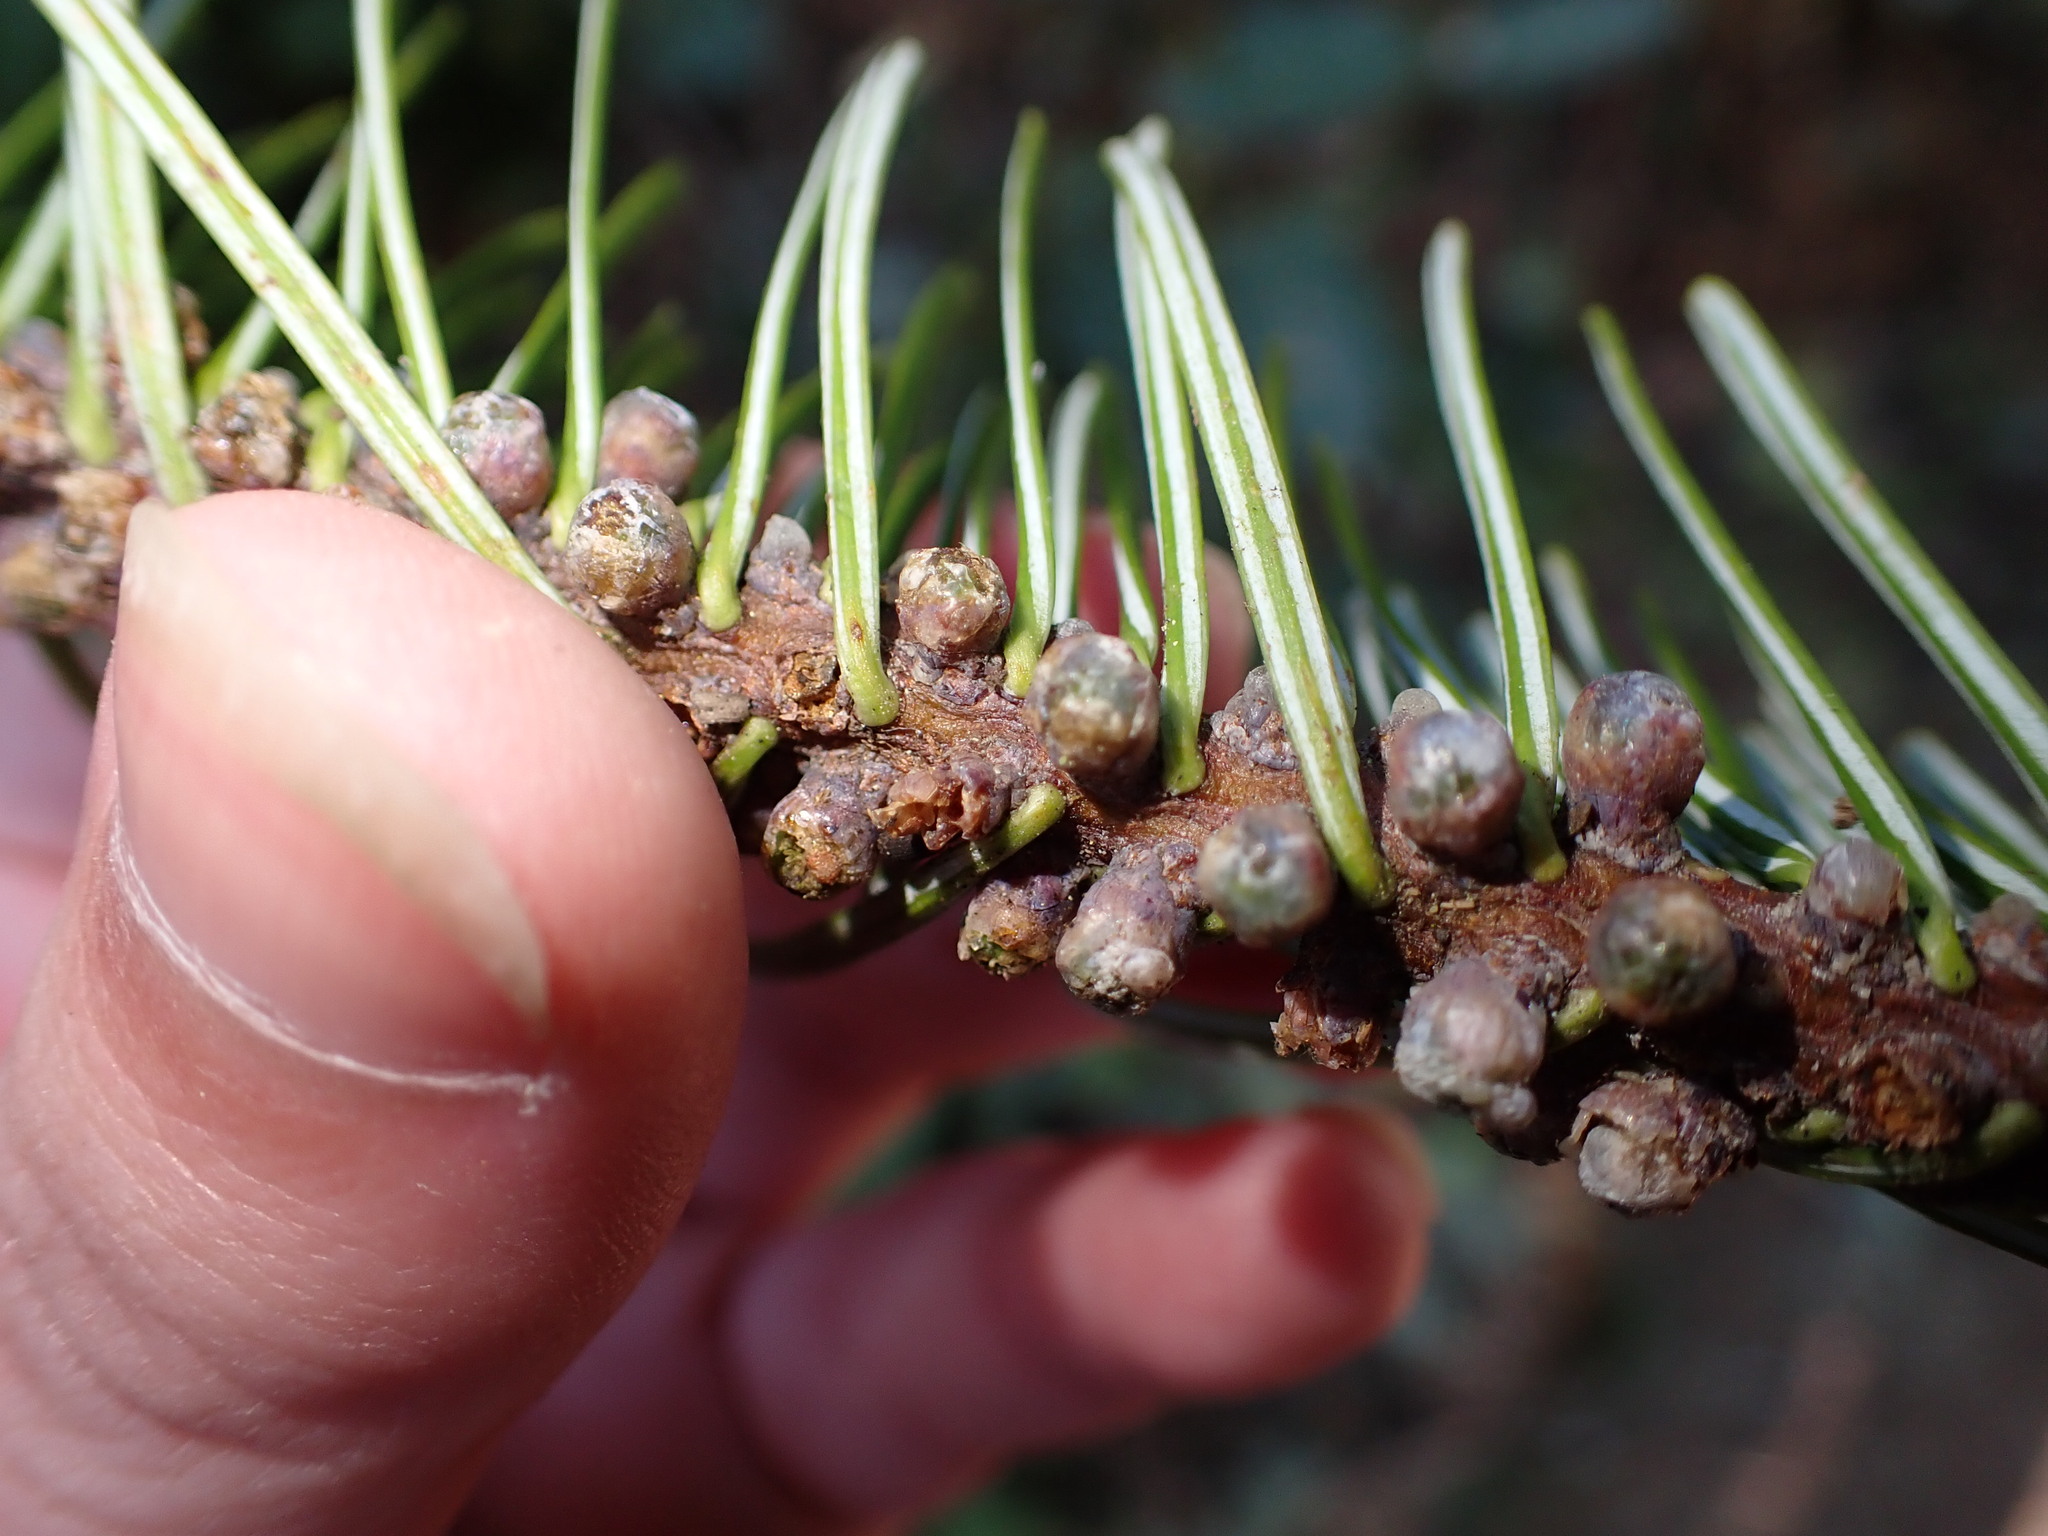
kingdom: Plantae
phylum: Tracheophyta
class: Pinopsida
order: Pinales
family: Pinaceae
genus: Abies
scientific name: Abies grandis
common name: Giant fir
